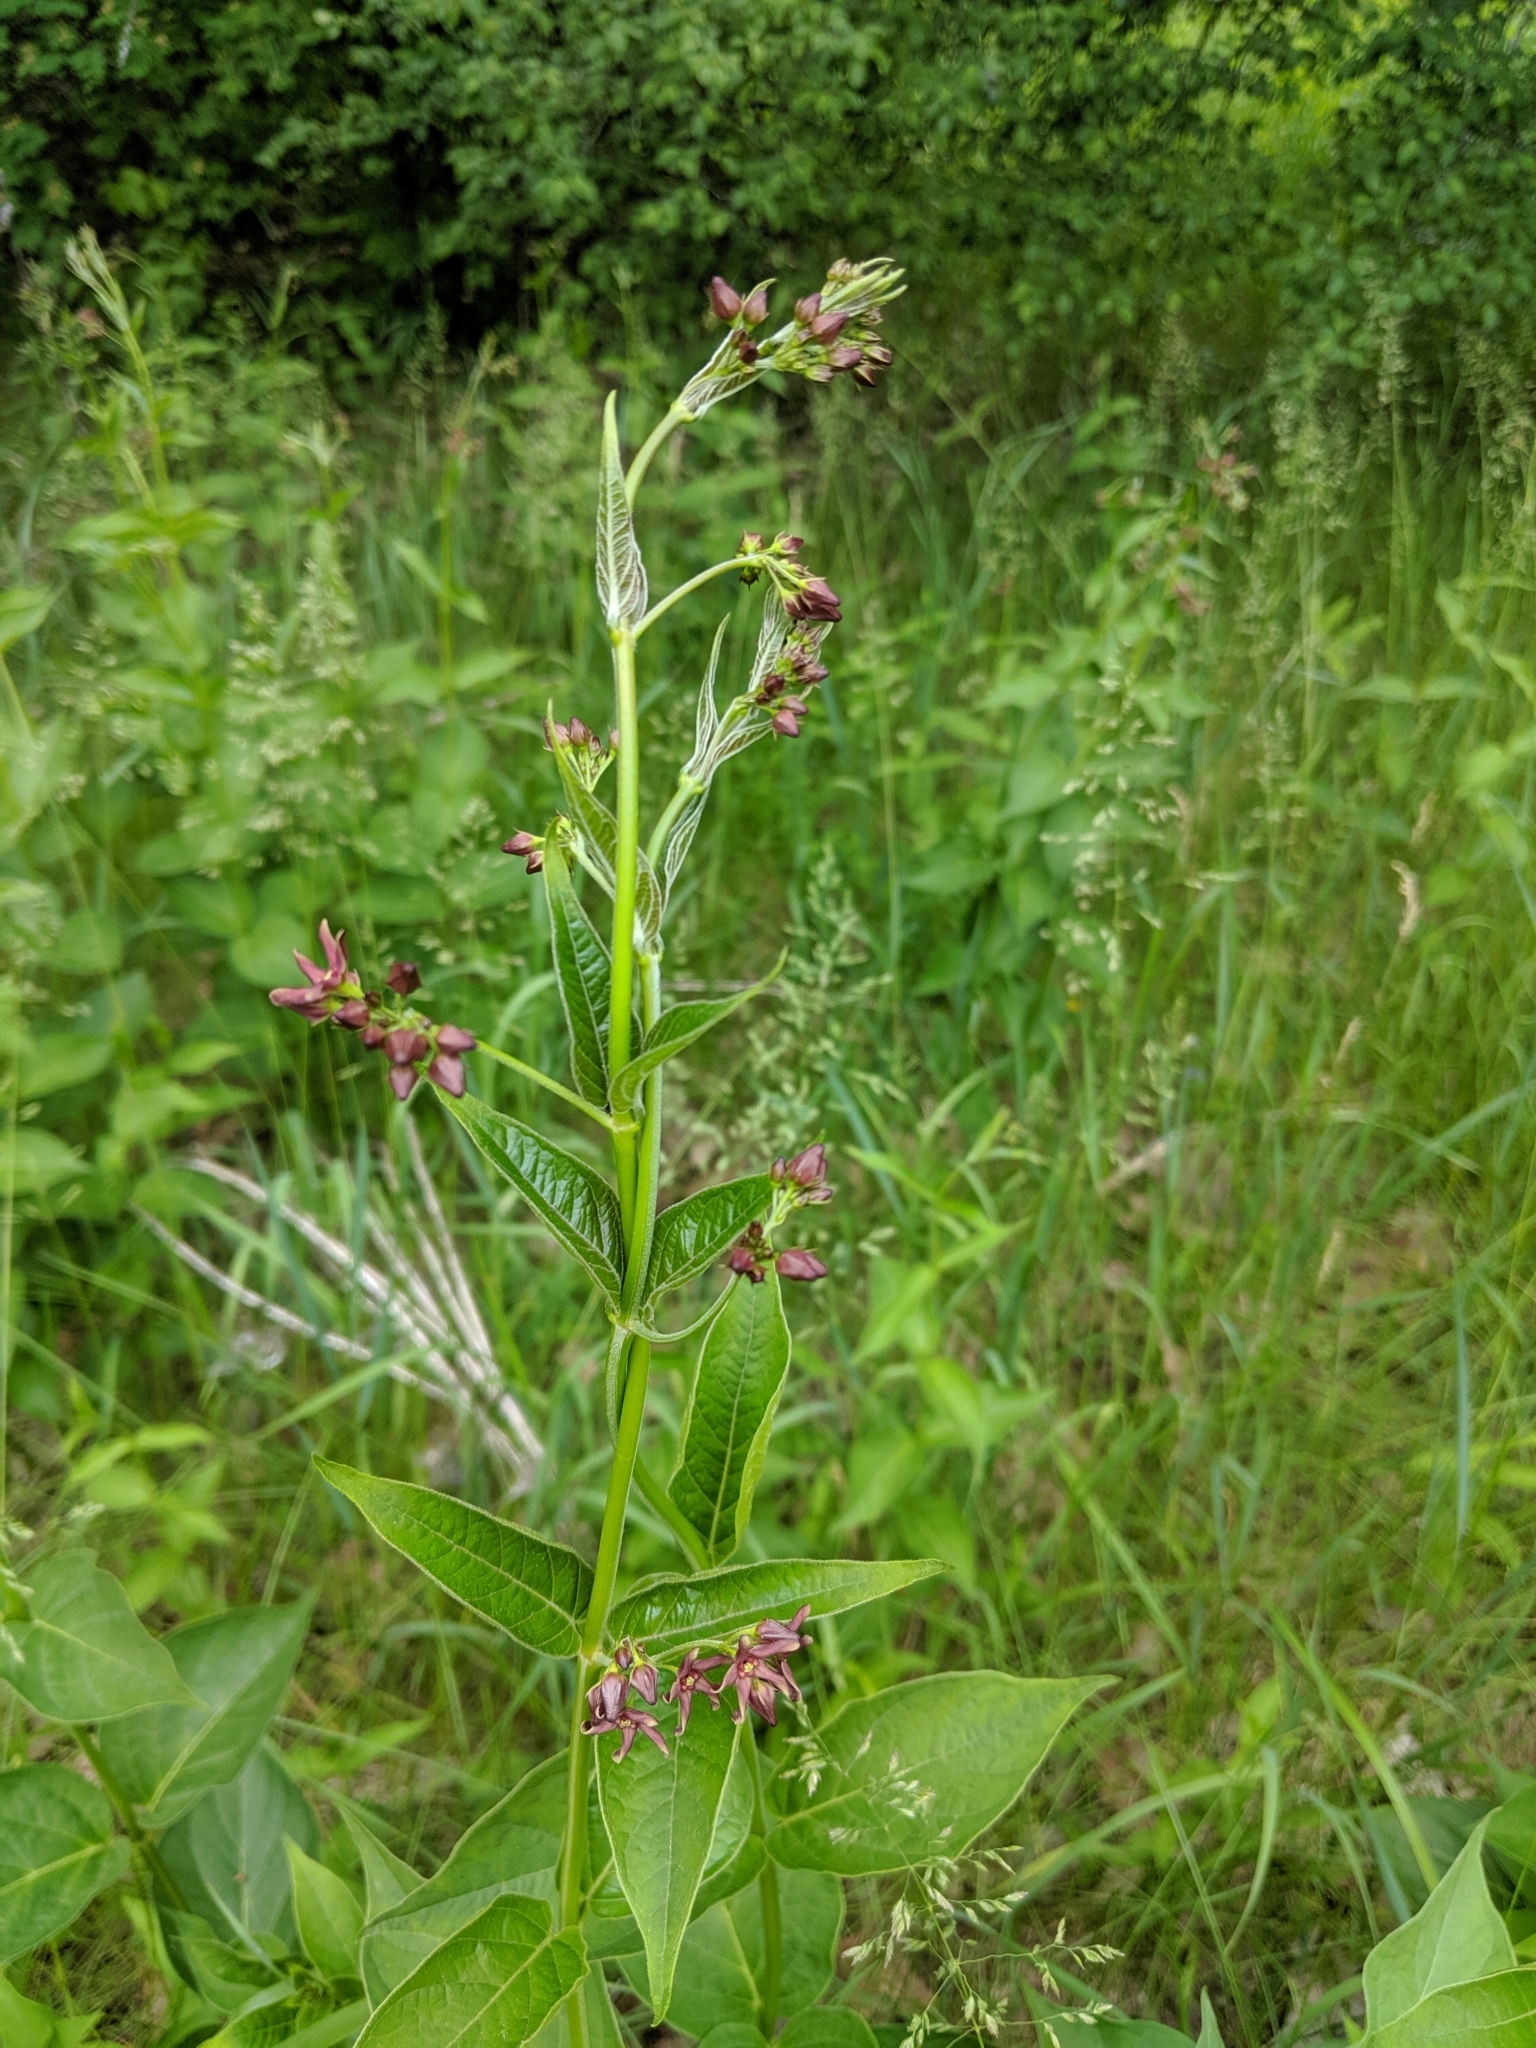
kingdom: Plantae
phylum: Tracheophyta
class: Magnoliopsida
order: Gentianales
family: Apocynaceae
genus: Vincetoxicum
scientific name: Vincetoxicum rossicum
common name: Dog-strangling vine
